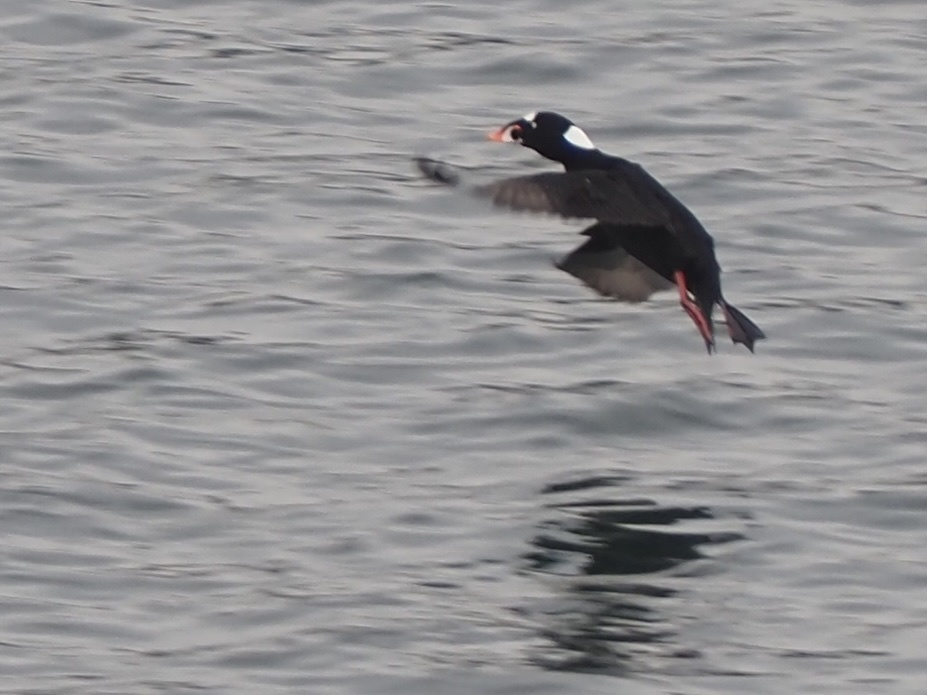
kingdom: Animalia
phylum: Chordata
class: Aves
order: Anseriformes
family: Anatidae
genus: Melanitta
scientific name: Melanitta perspicillata
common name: Surf scoter
